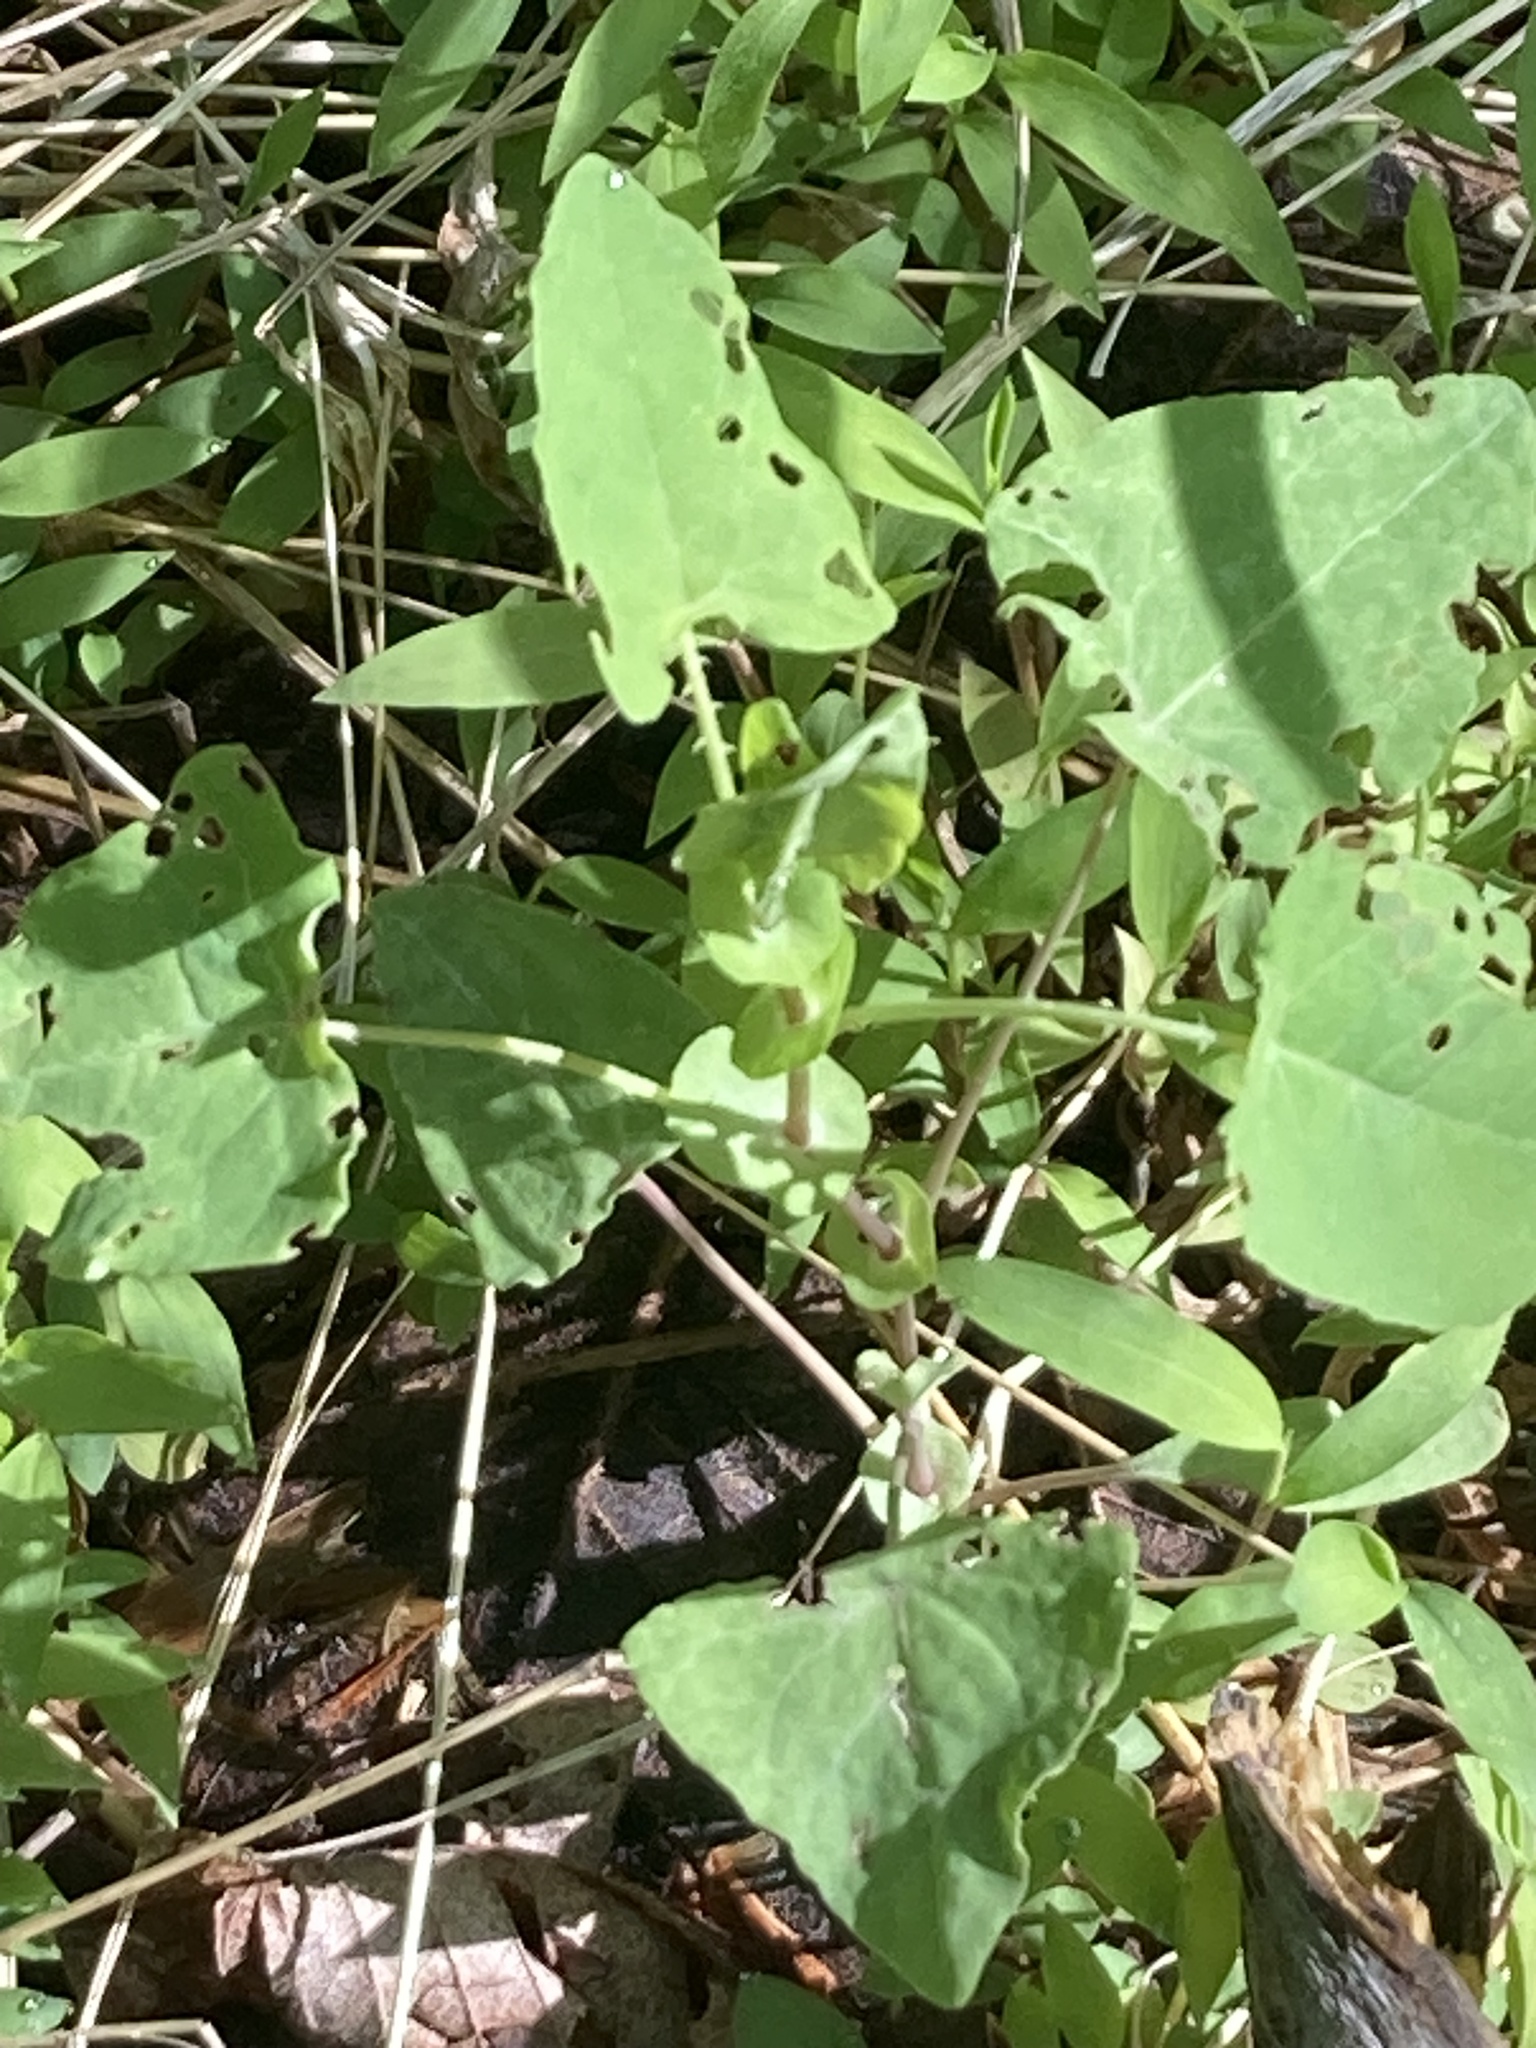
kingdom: Plantae
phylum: Tracheophyta
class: Magnoliopsida
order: Caryophyllales
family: Polygonaceae
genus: Persicaria
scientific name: Persicaria perfoliata
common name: Asiatic tearthumb
